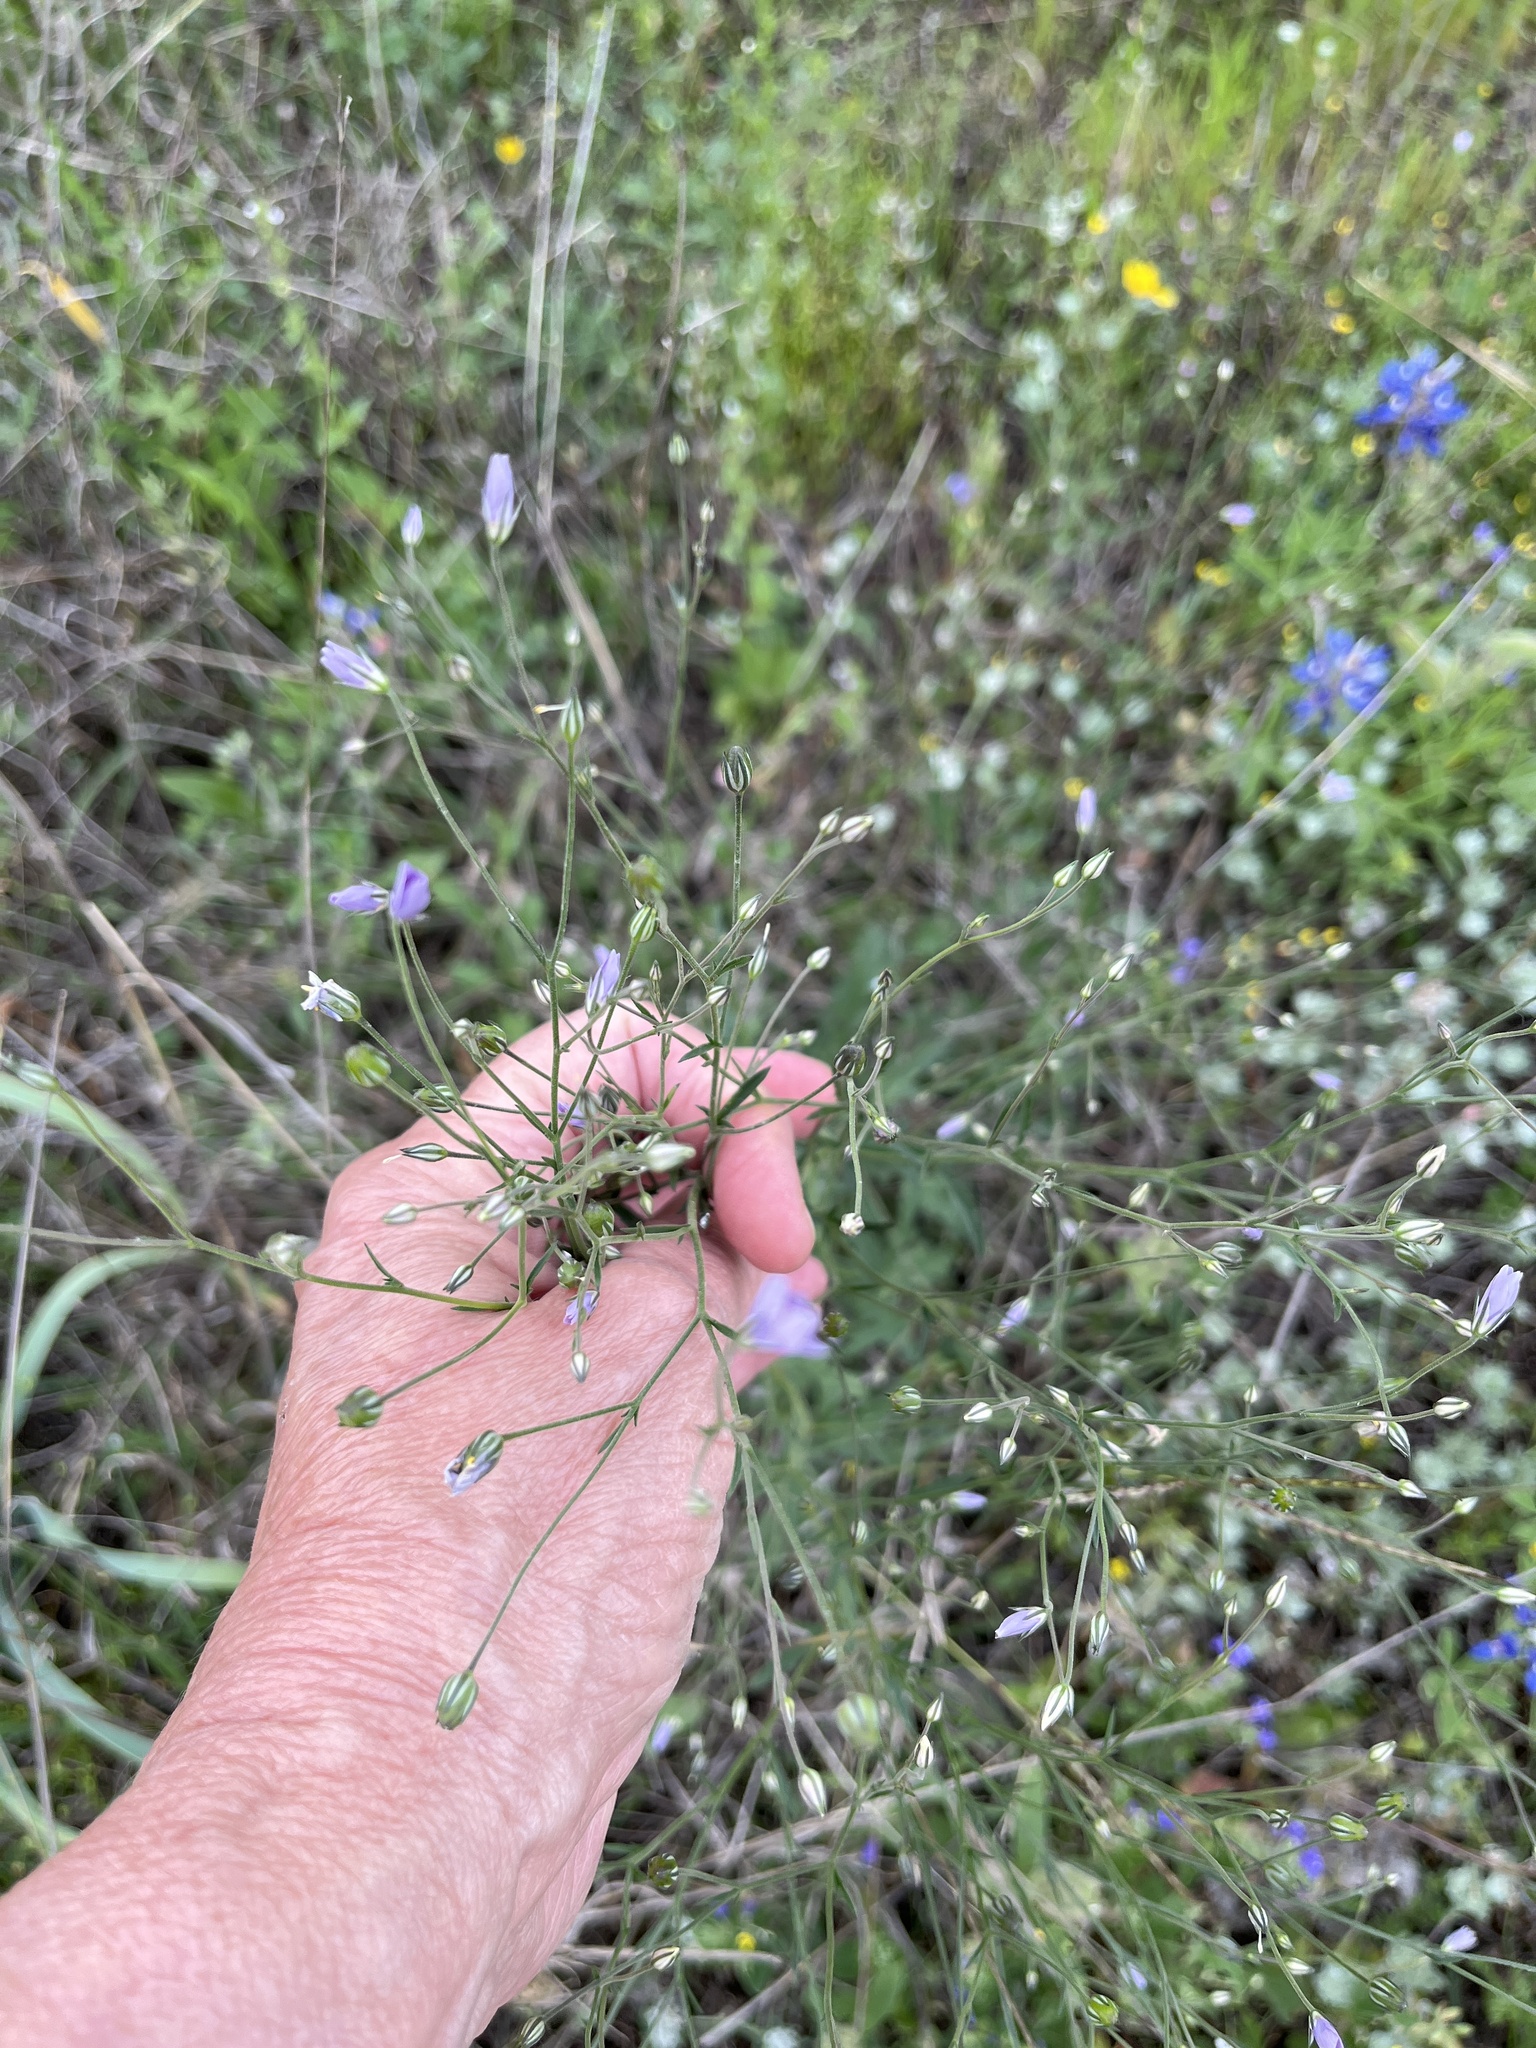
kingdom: Plantae
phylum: Tracheophyta
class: Magnoliopsida
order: Ericales
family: Polemoniaceae
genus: Giliastrum
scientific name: Giliastrum incisum
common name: Splitleaf gilia
